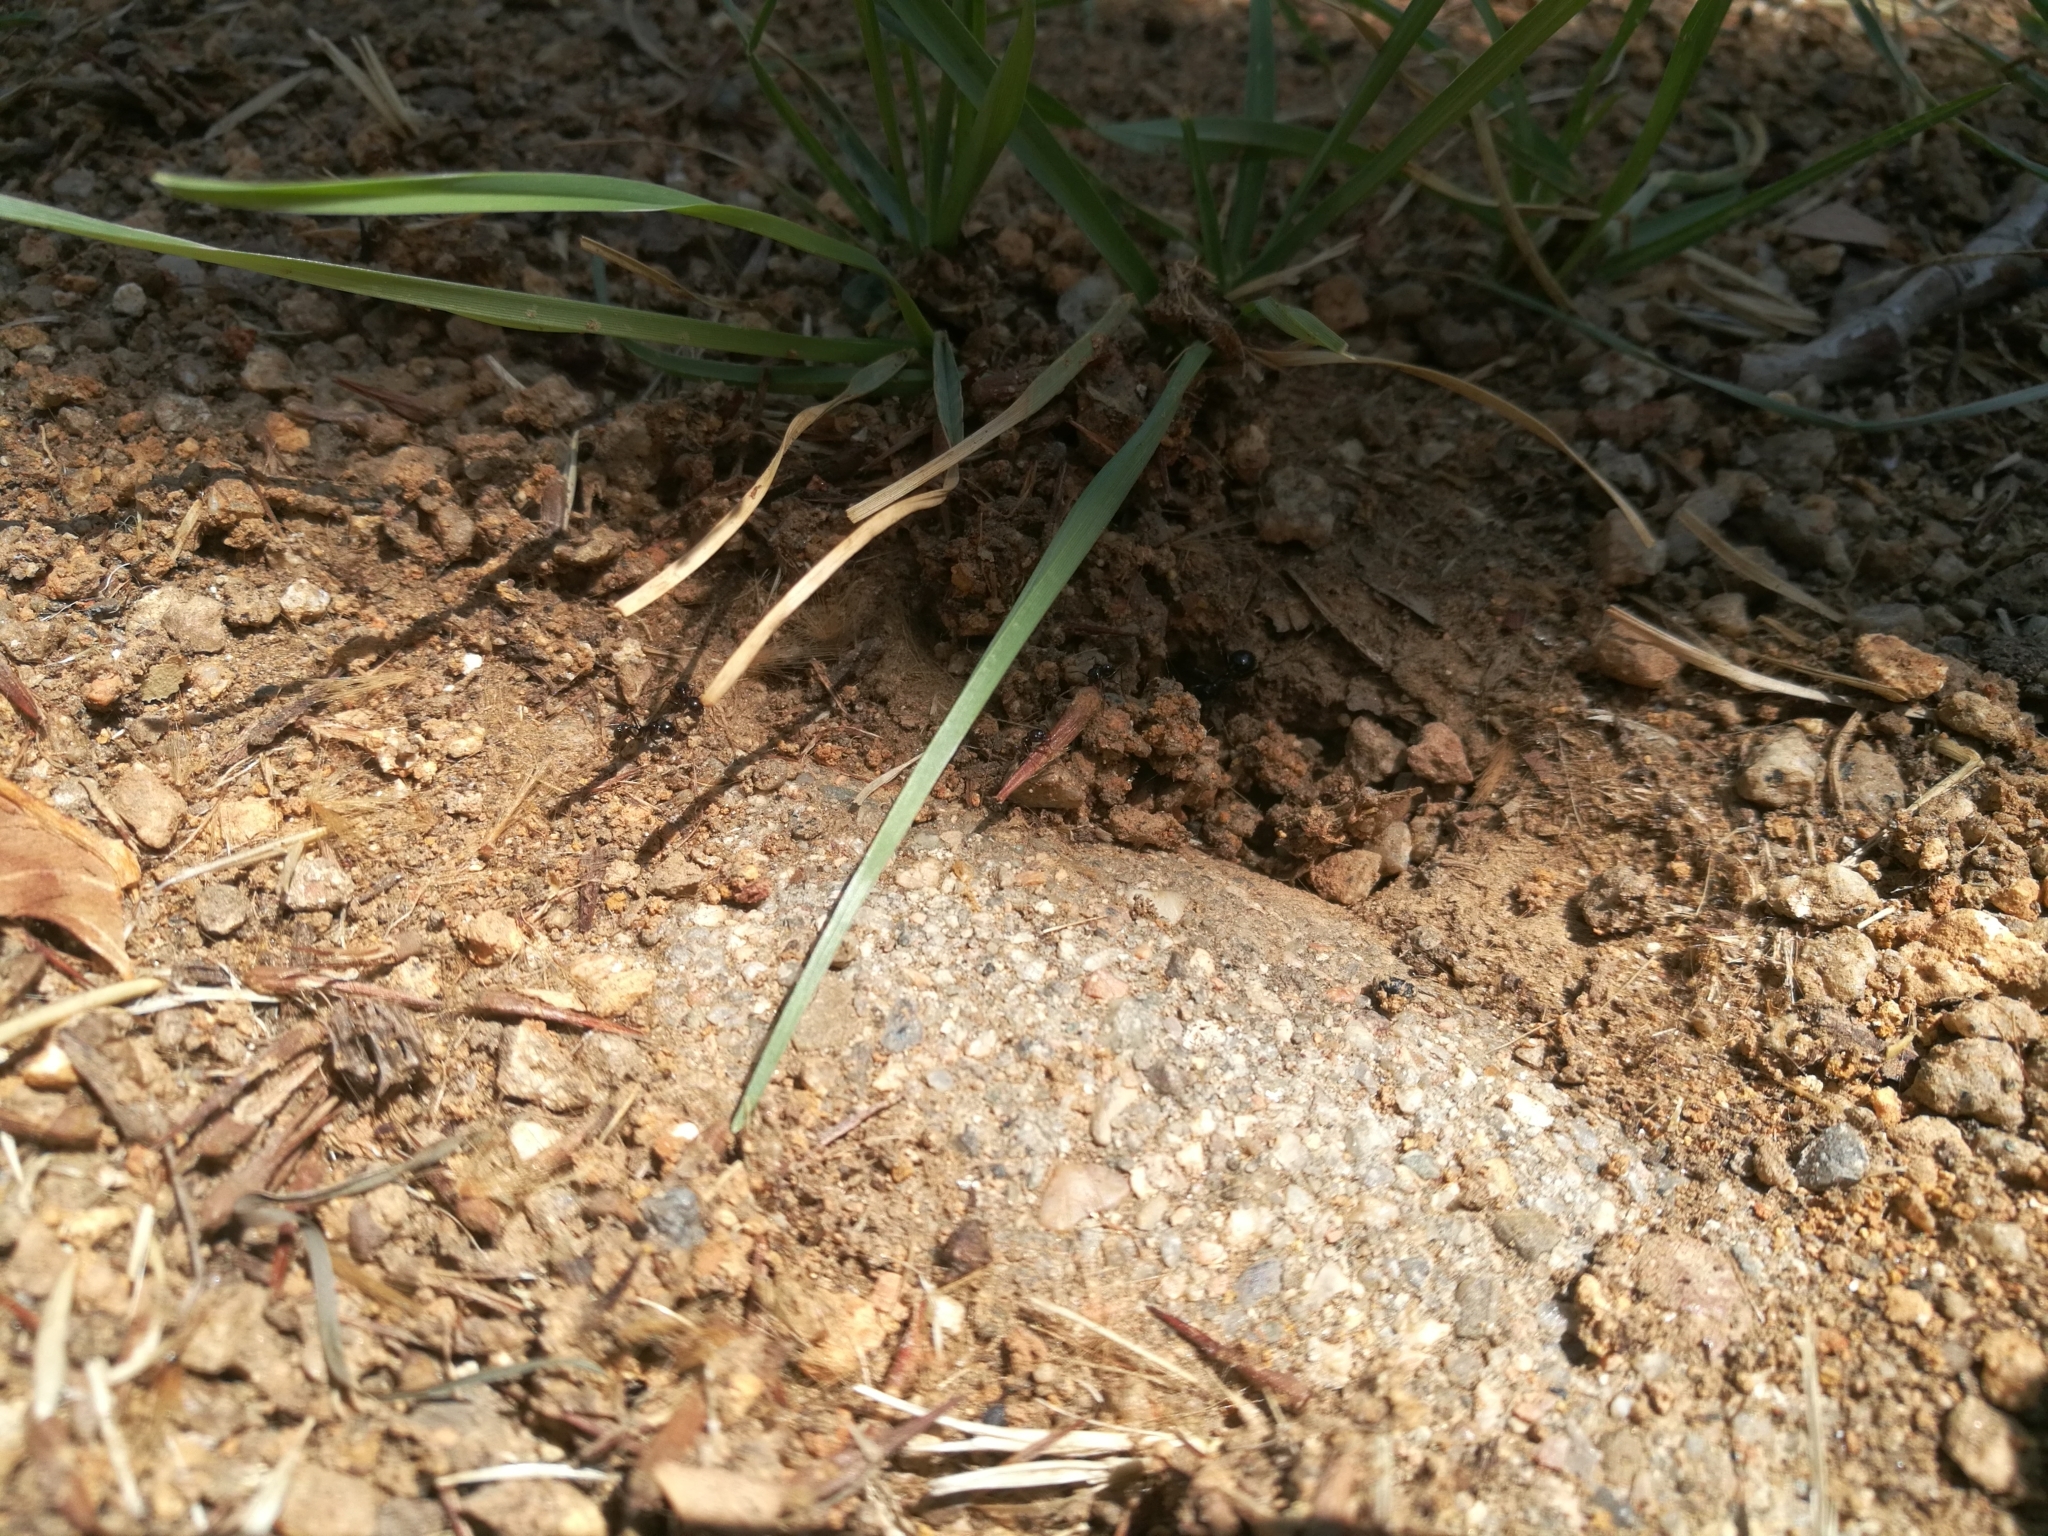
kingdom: Animalia
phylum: Arthropoda
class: Insecta
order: Hymenoptera
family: Formicidae
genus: Messor
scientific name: Messor barbarus
